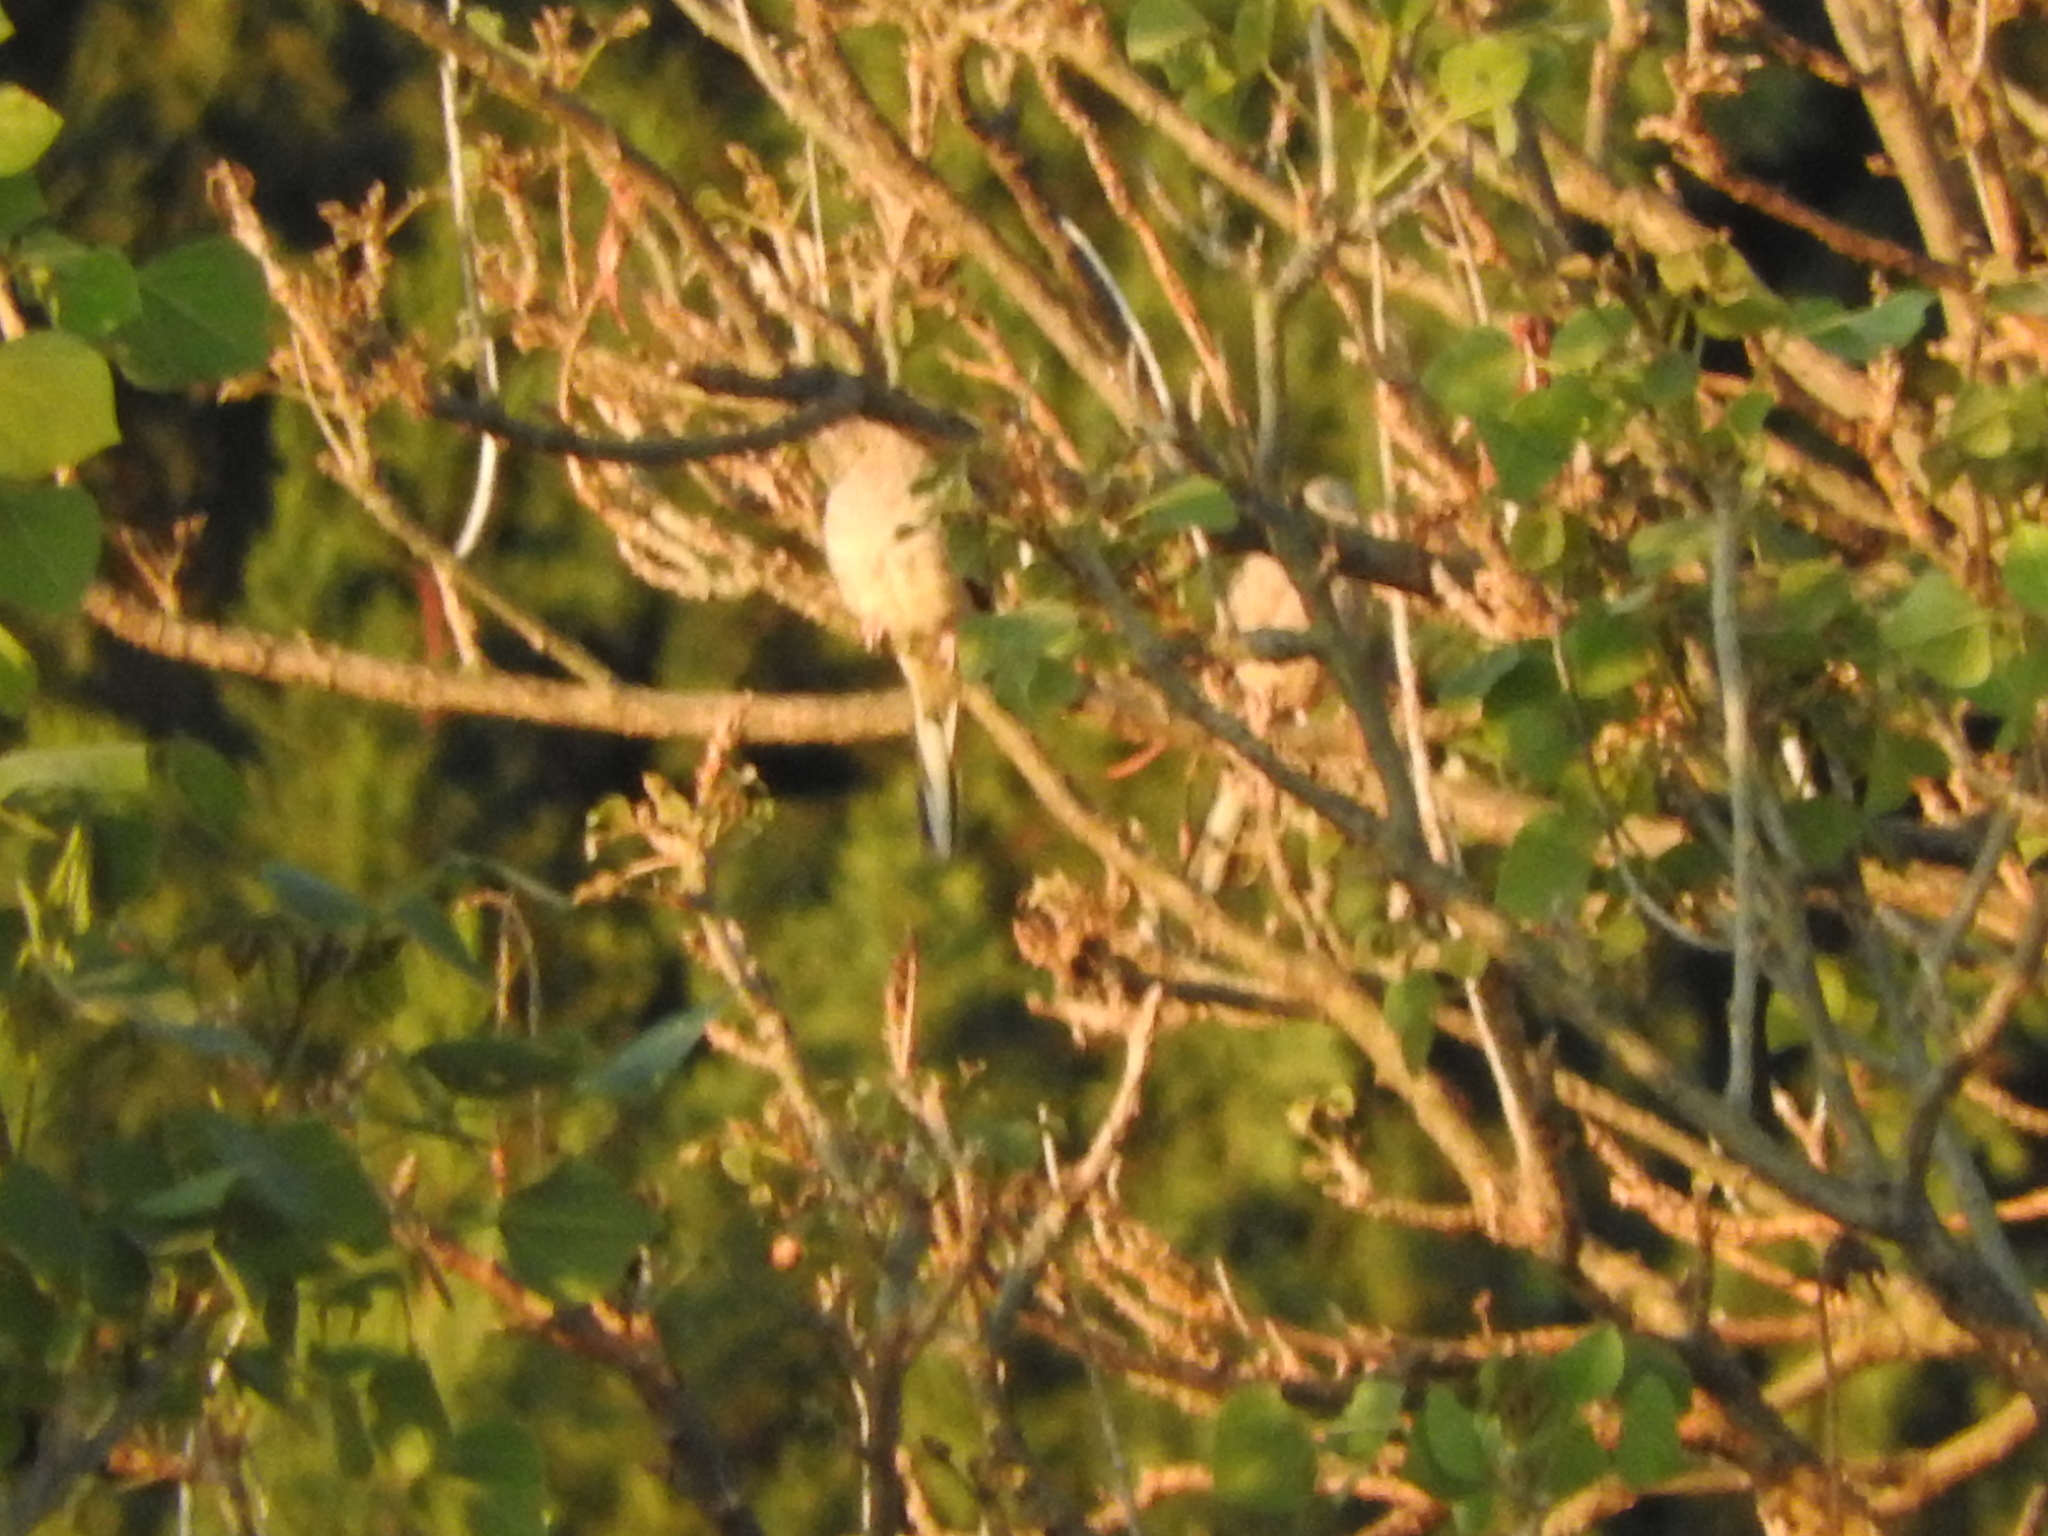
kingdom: Animalia
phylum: Chordata
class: Aves
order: Columbiformes
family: Columbidae
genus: Columbina
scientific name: Columbina inca
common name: Inca dove
